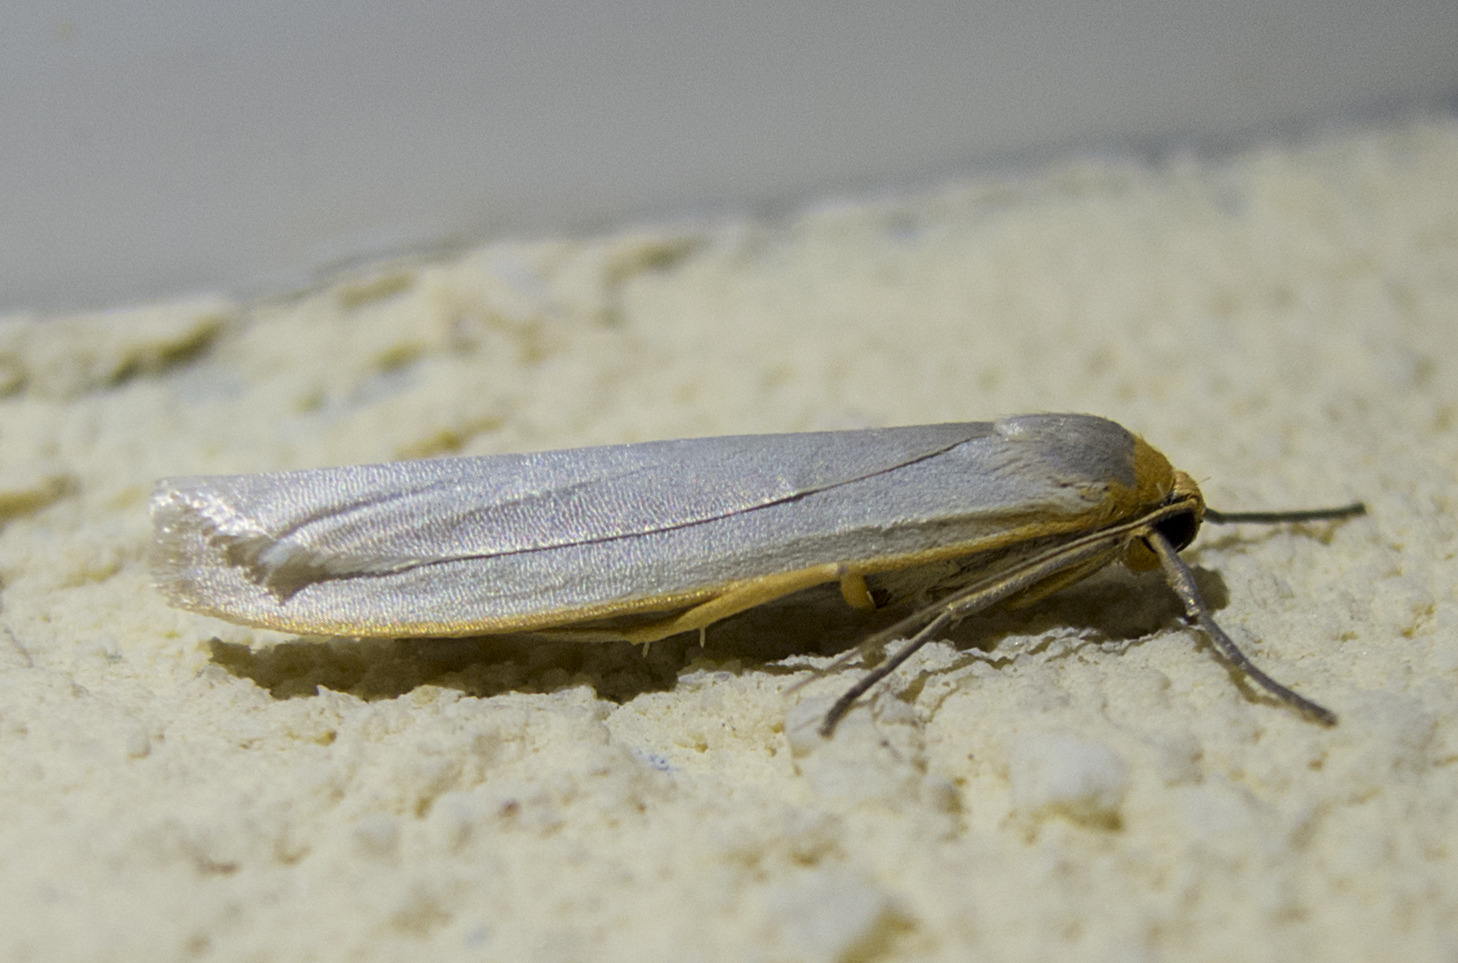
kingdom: Animalia
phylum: Arthropoda
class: Insecta
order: Lepidoptera
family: Erebidae
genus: Eilema
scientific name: Eilema caniola
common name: Hoary footman
